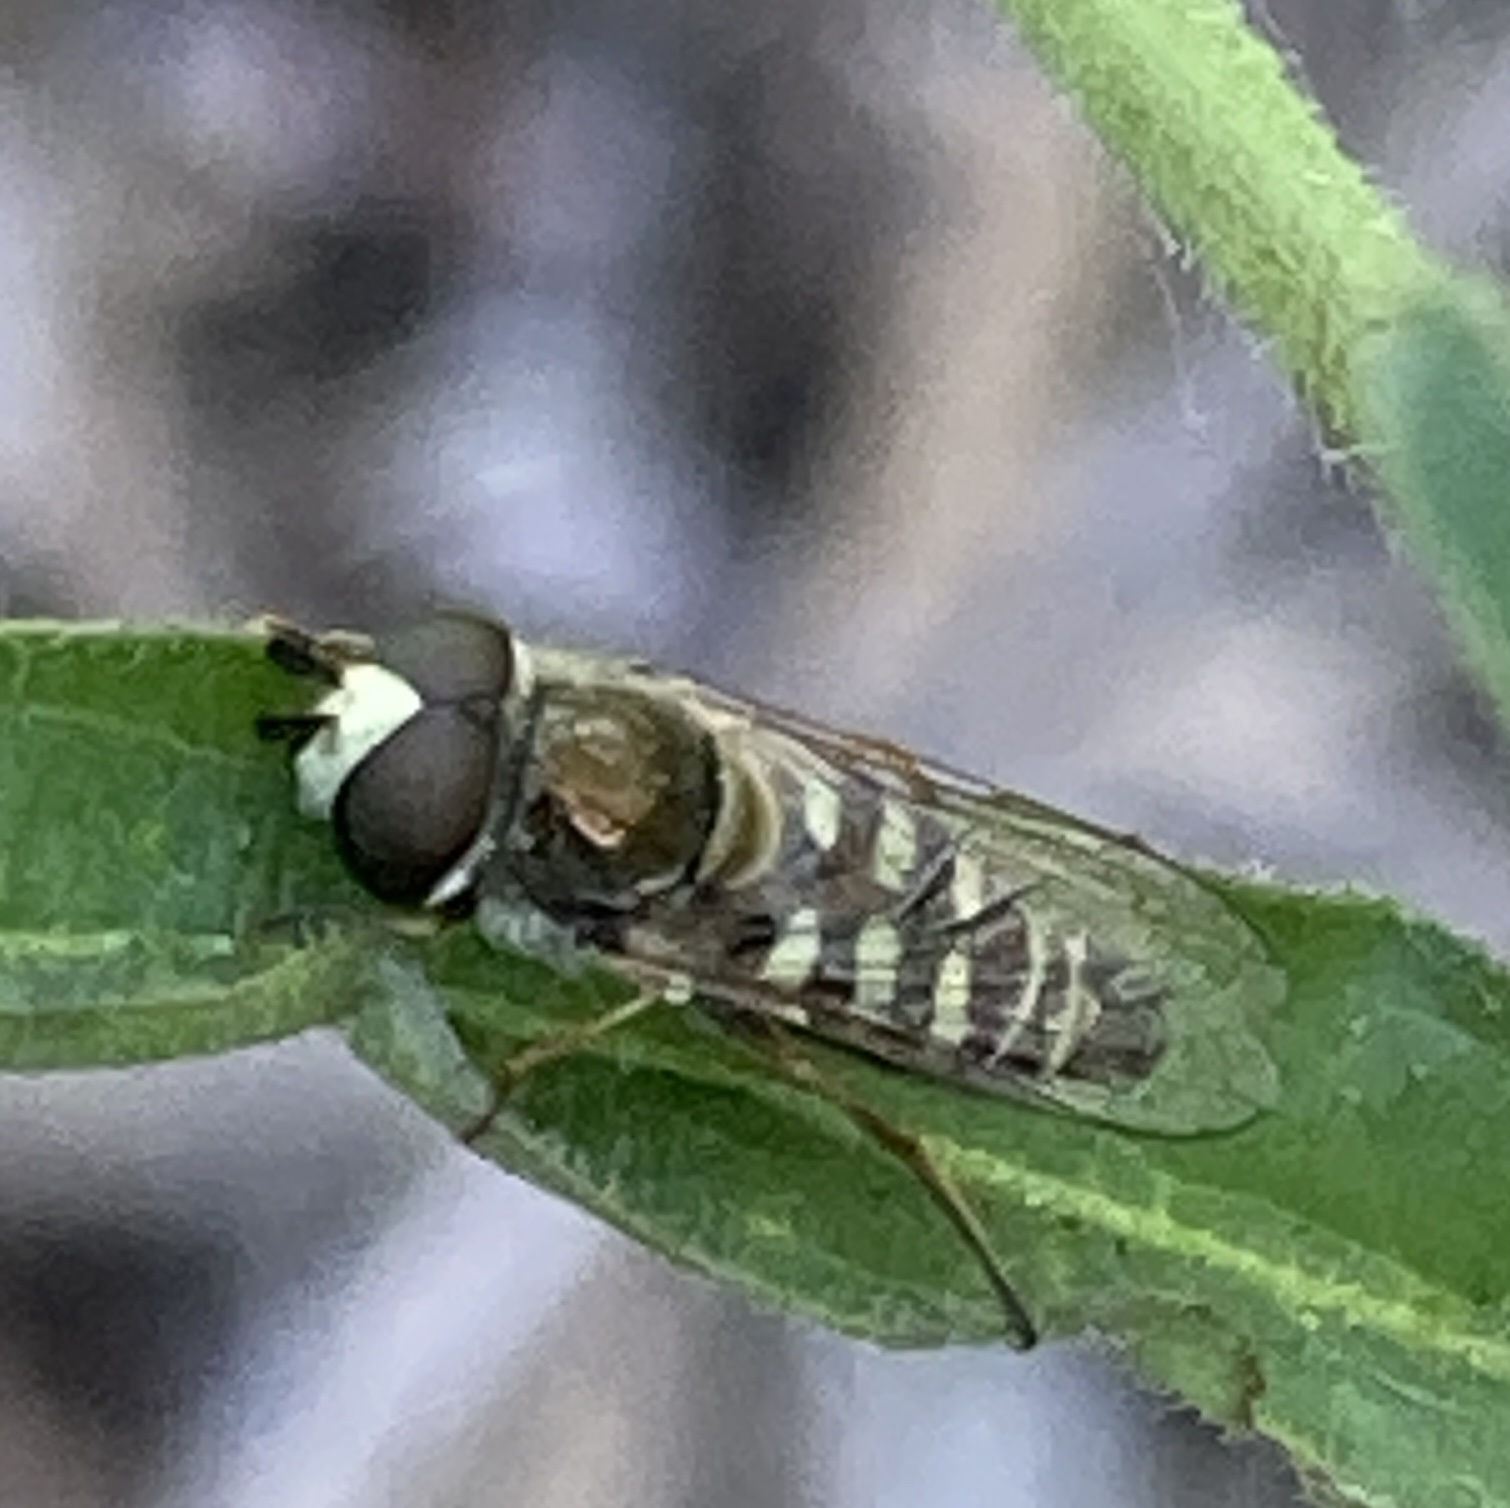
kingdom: Animalia
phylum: Arthropoda
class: Insecta
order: Diptera
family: Syrphidae
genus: Eupeodes
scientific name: Eupeodes volucris
